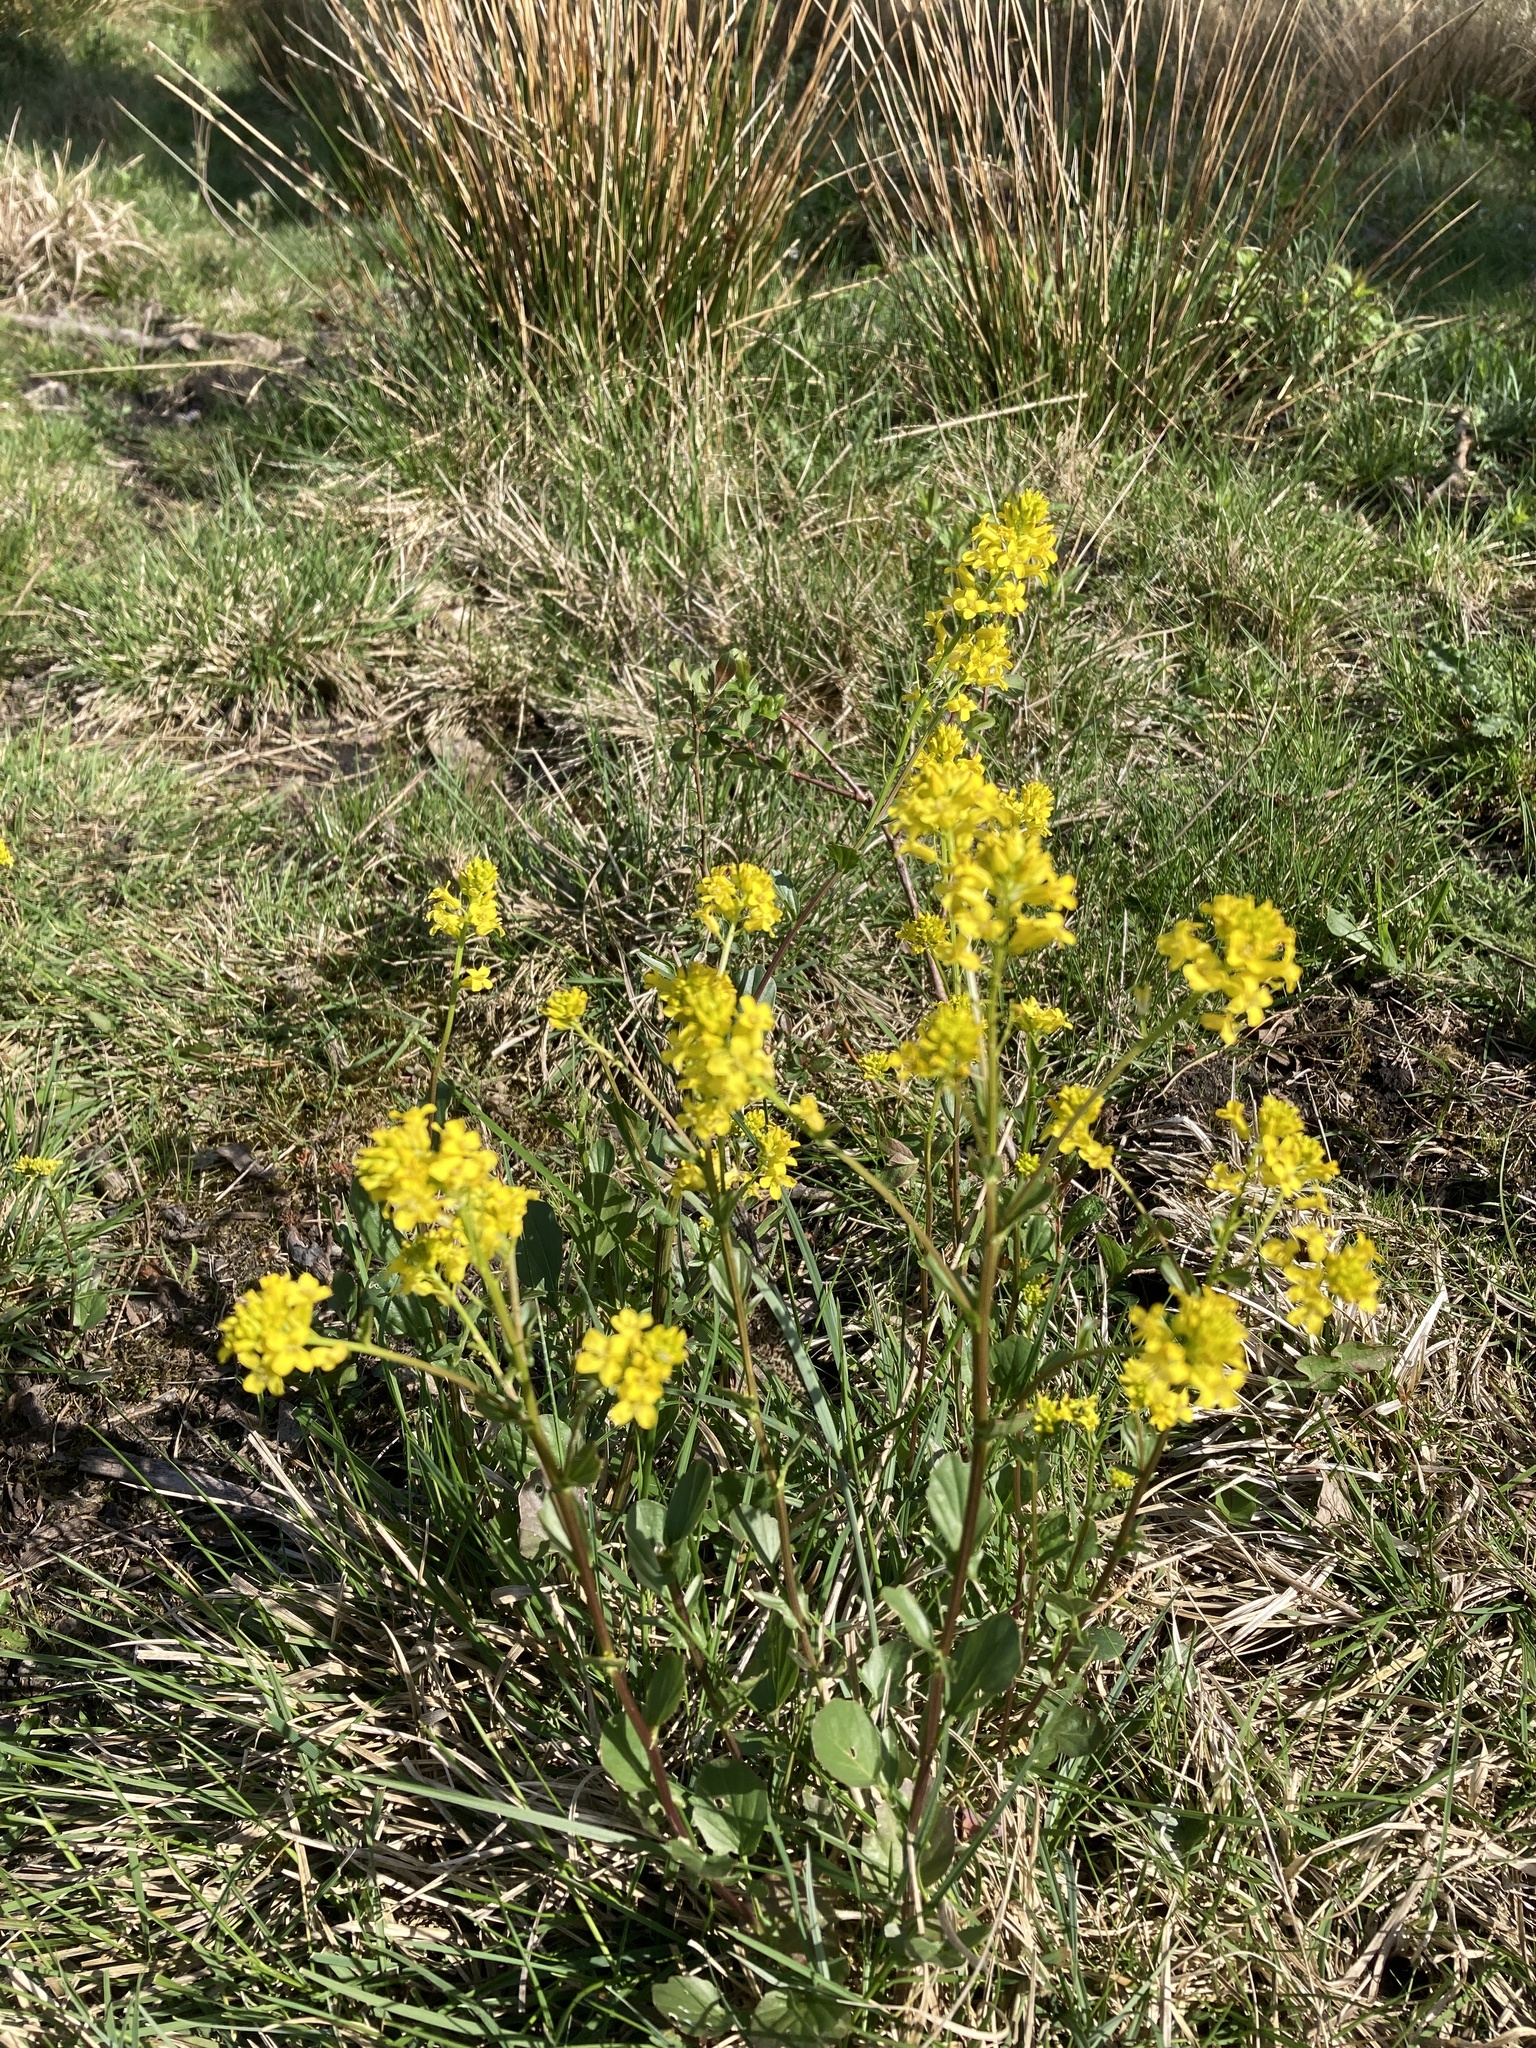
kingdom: Plantae
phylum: Tracheophyta
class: Magnoliopsida
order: Brassicales
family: Brassicaceae
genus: Barbarea
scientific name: Barbarea vulgaris
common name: Cressy-greens
